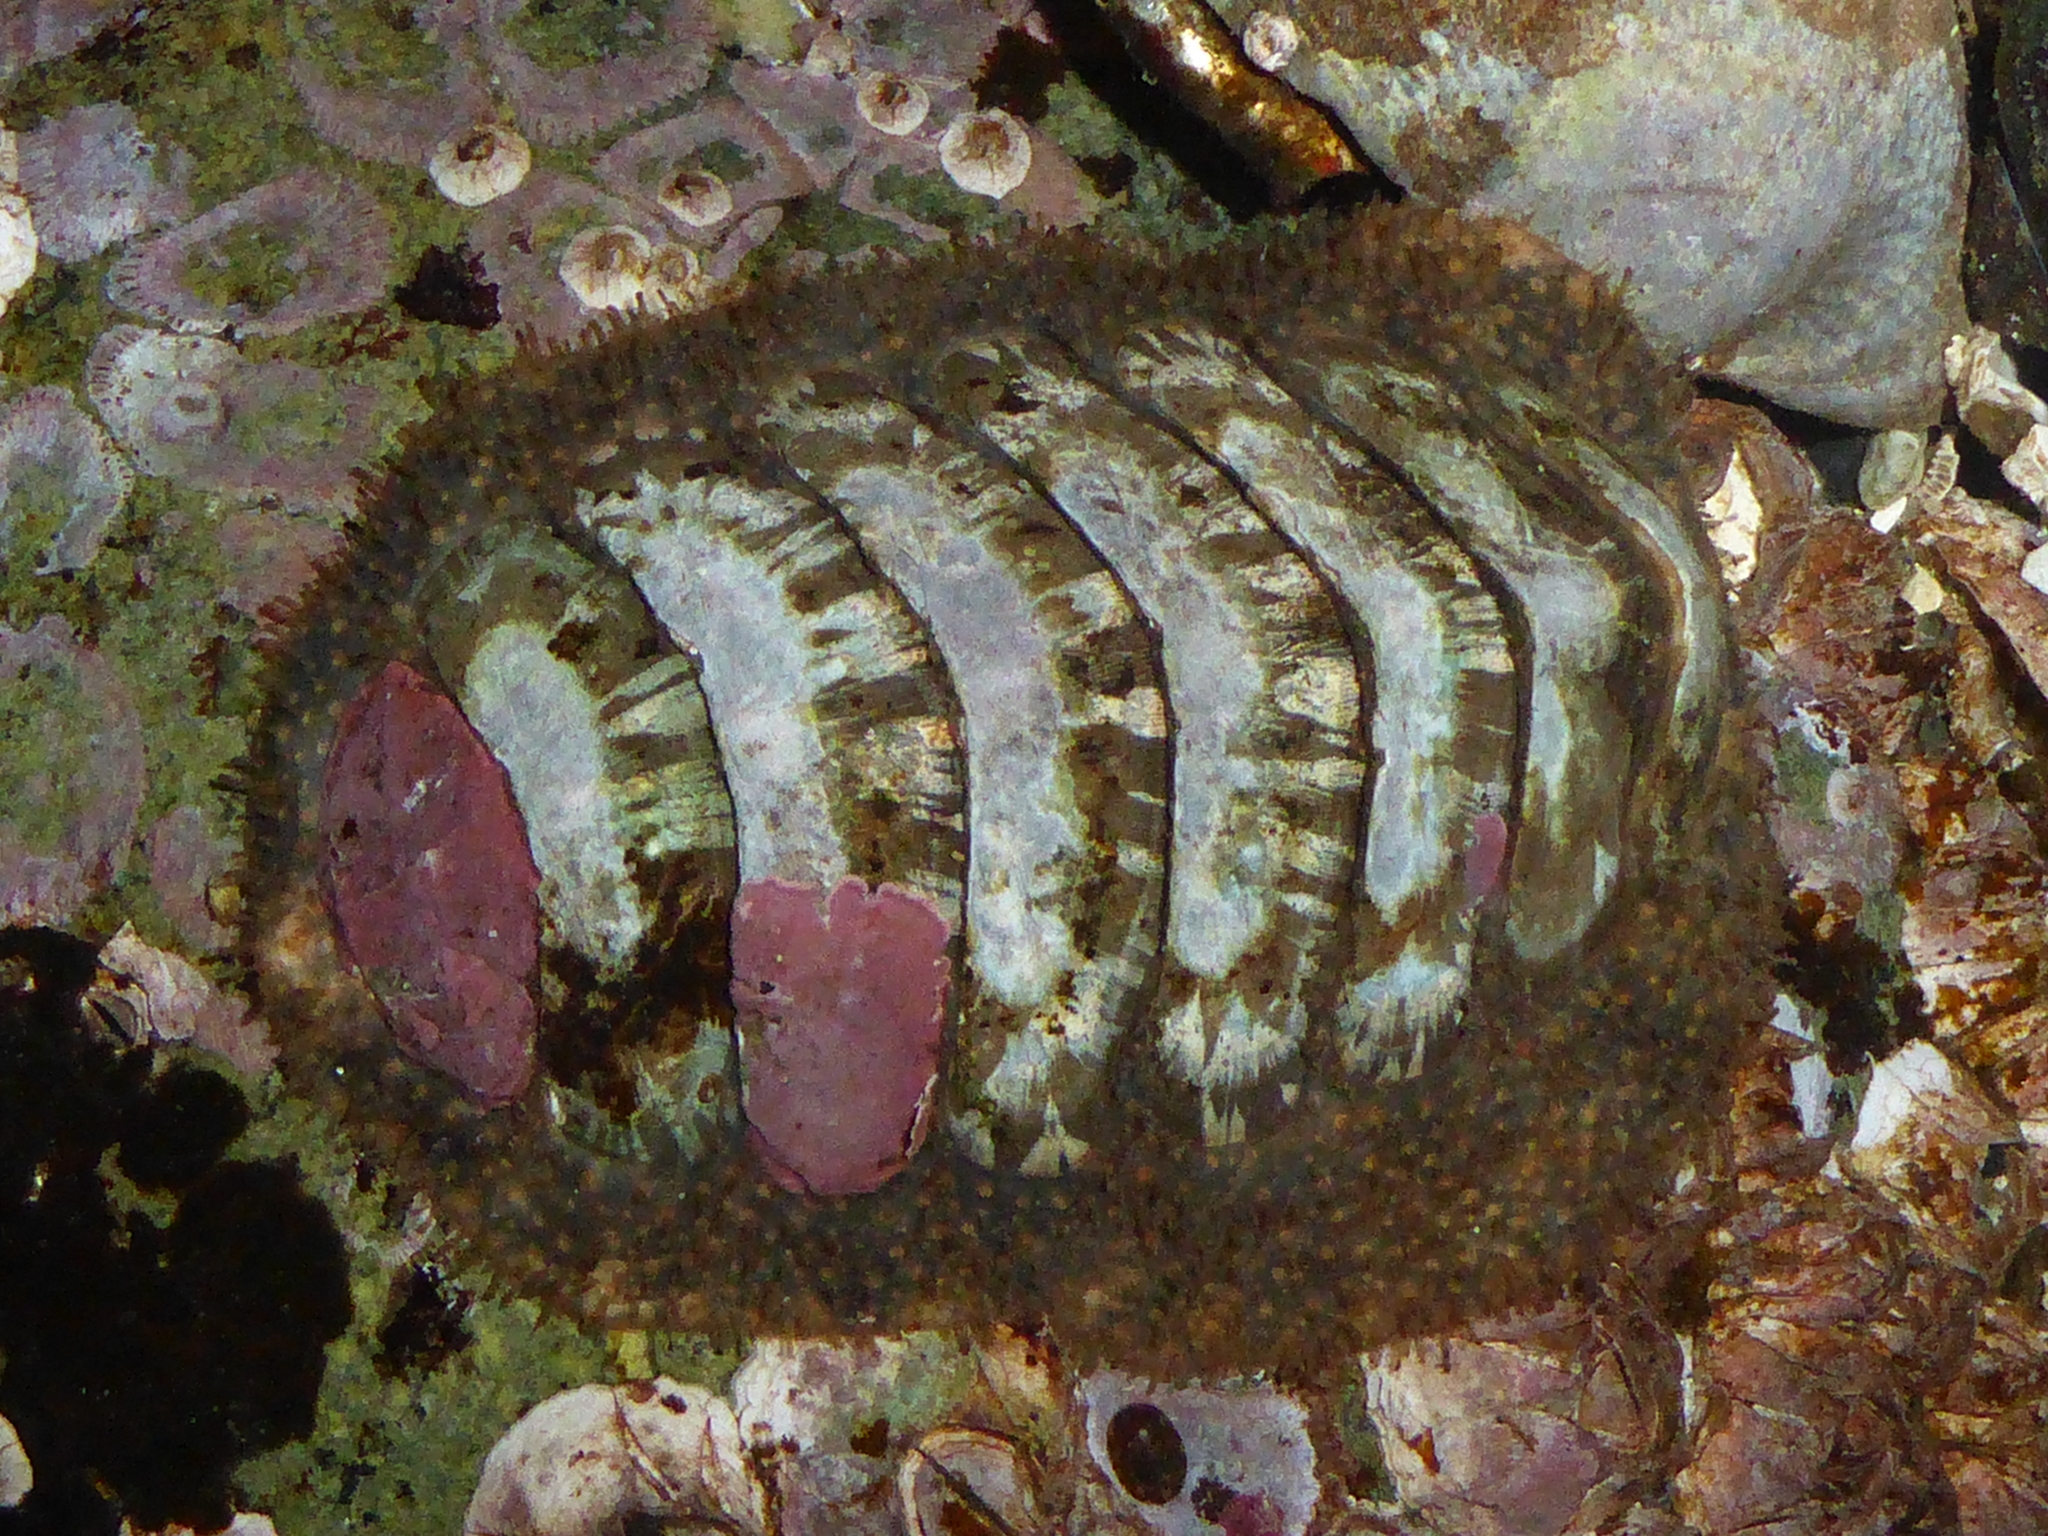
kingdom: Animalia
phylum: Mollusca
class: Polyplacophora
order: Chitonida
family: Mopaliidae
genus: Mopalia
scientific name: Mopalia lignosa
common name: Woody chiton
